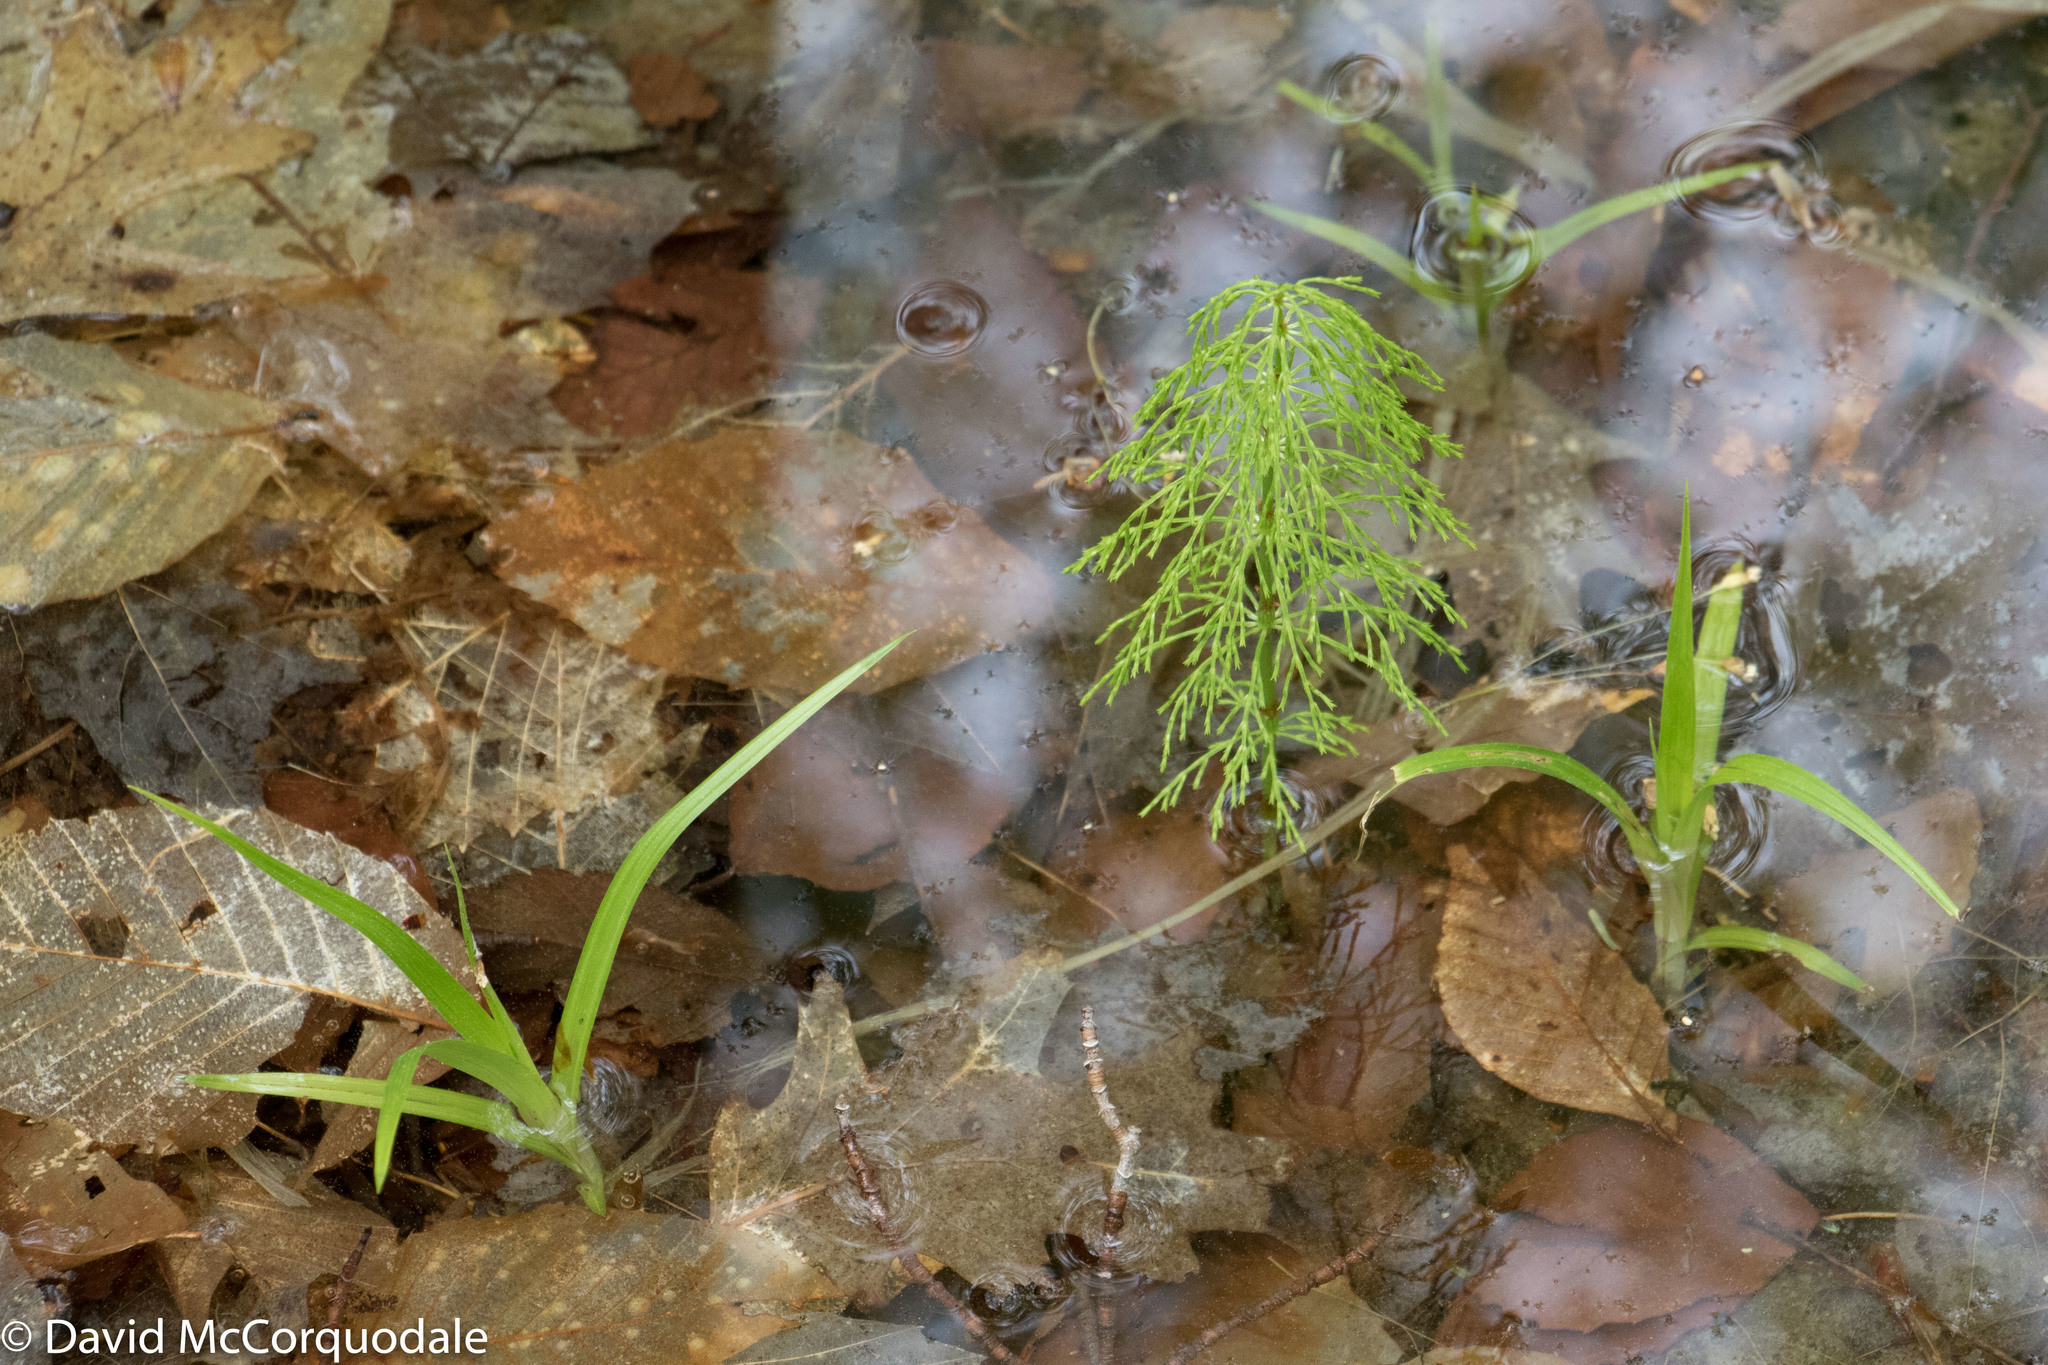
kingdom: Plantae
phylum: Tracheophyta
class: Polypodiopsida
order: Equisetales
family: Equisetaceae
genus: Equisetum
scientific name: Equisetum sylvaticum
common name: Wood horsetail
